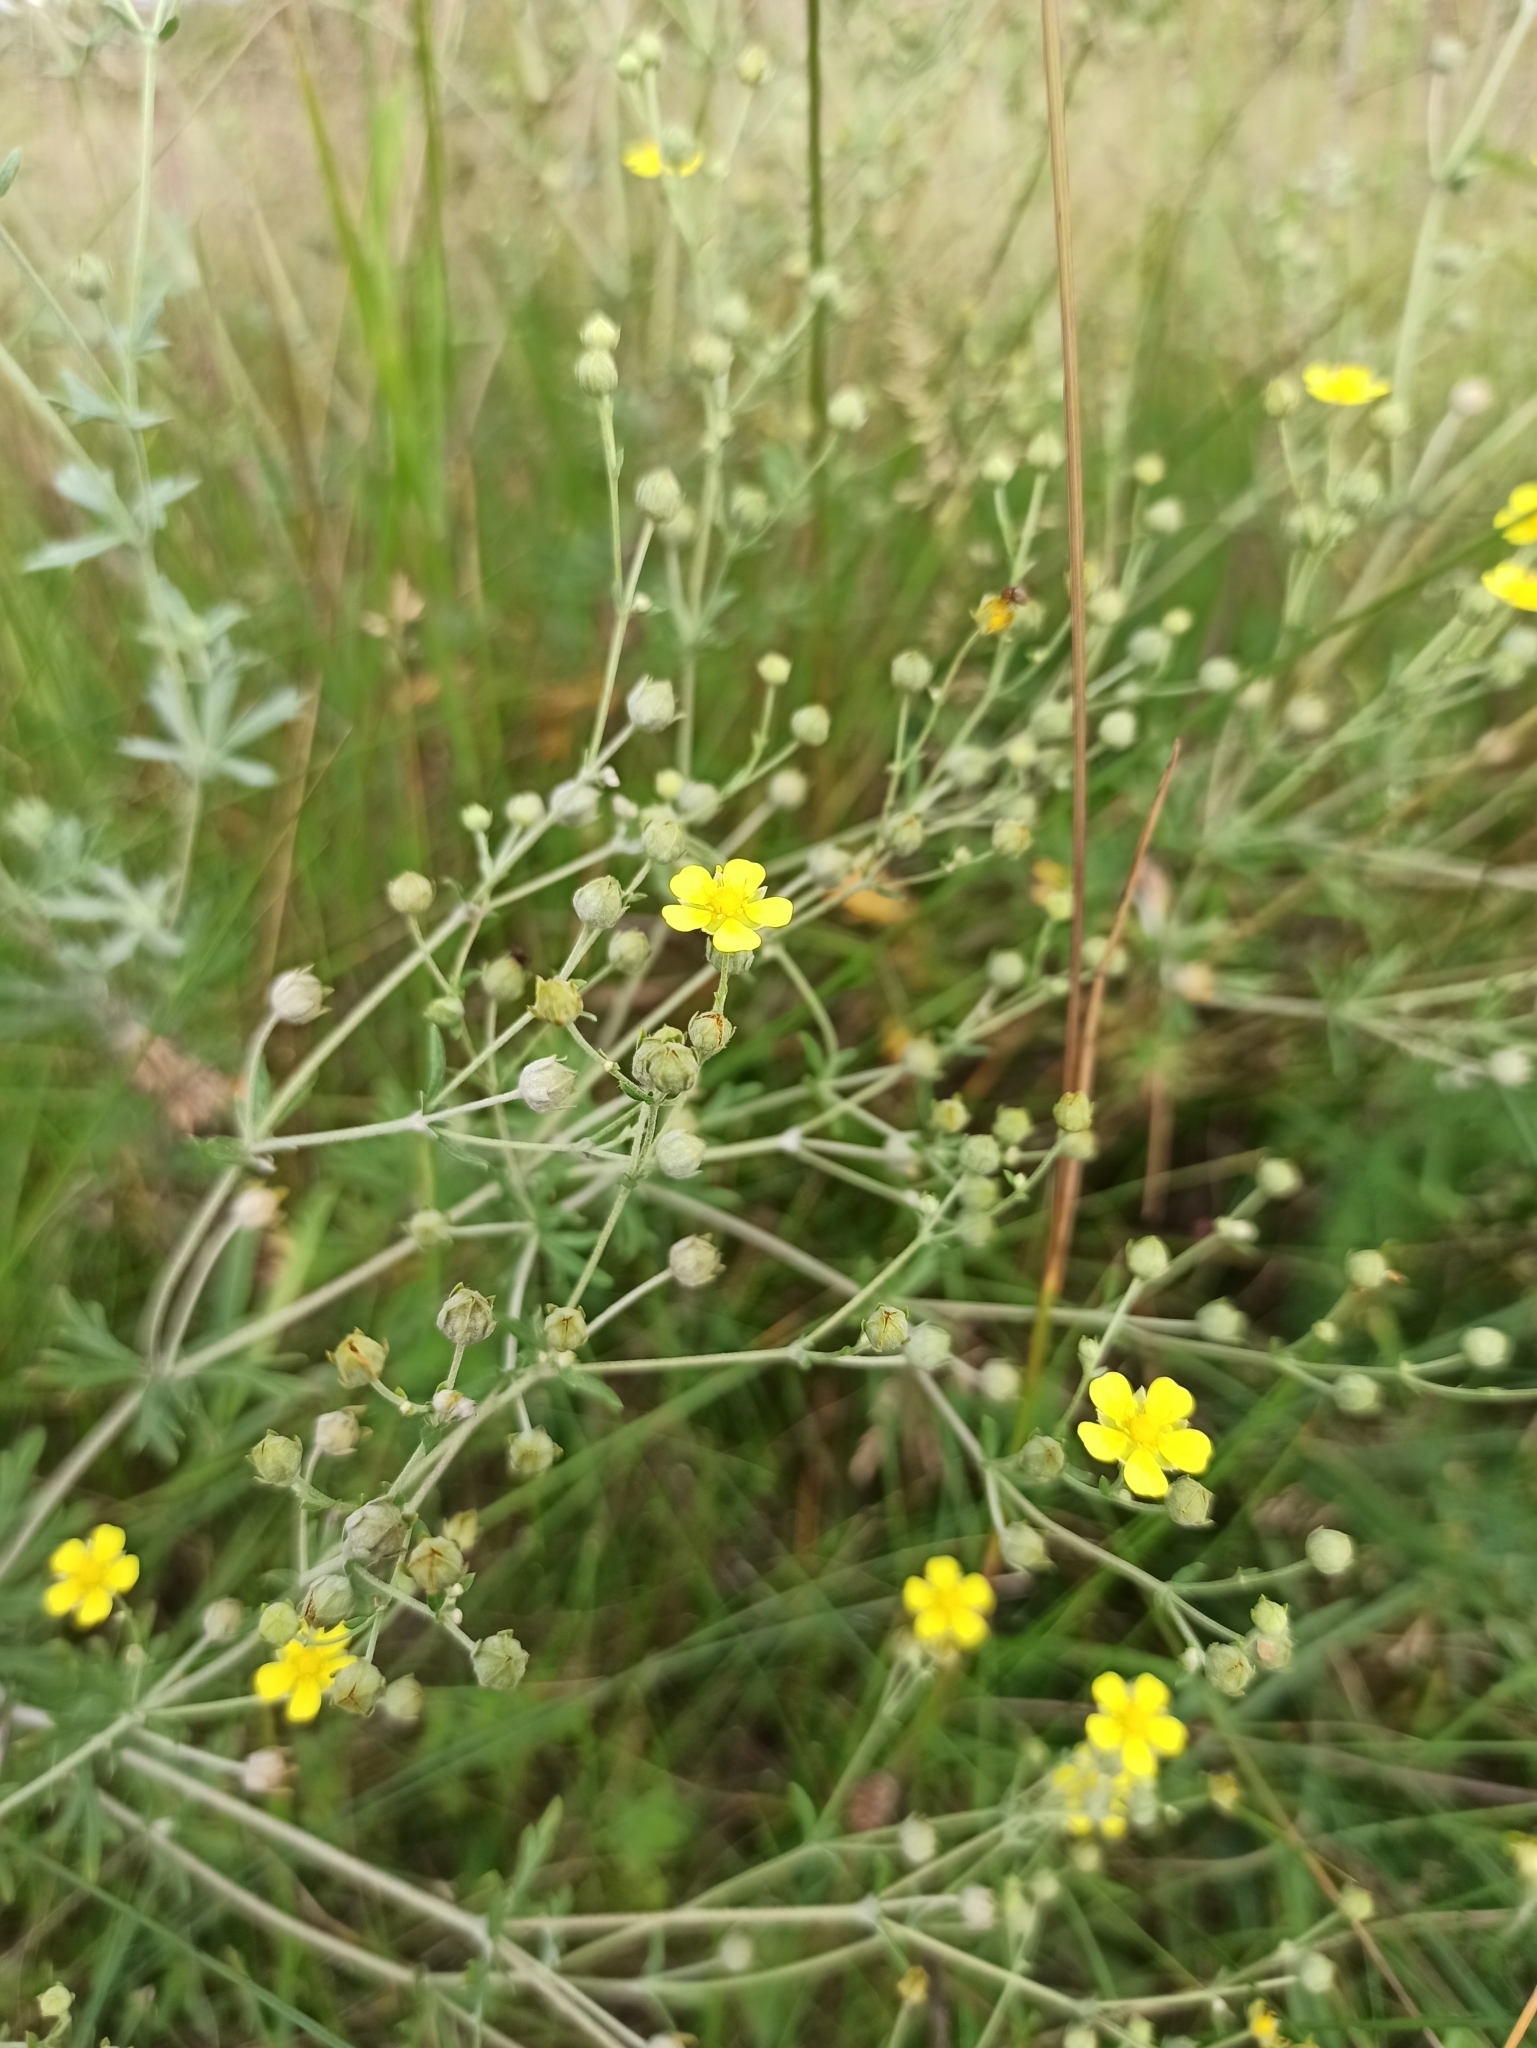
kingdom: Plantae
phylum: Tracheophyta
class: Magnoliopsida
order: Rosales
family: Rosaceae
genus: Potentilla
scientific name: Potentilla argentea
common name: Hoary cinquefoil
